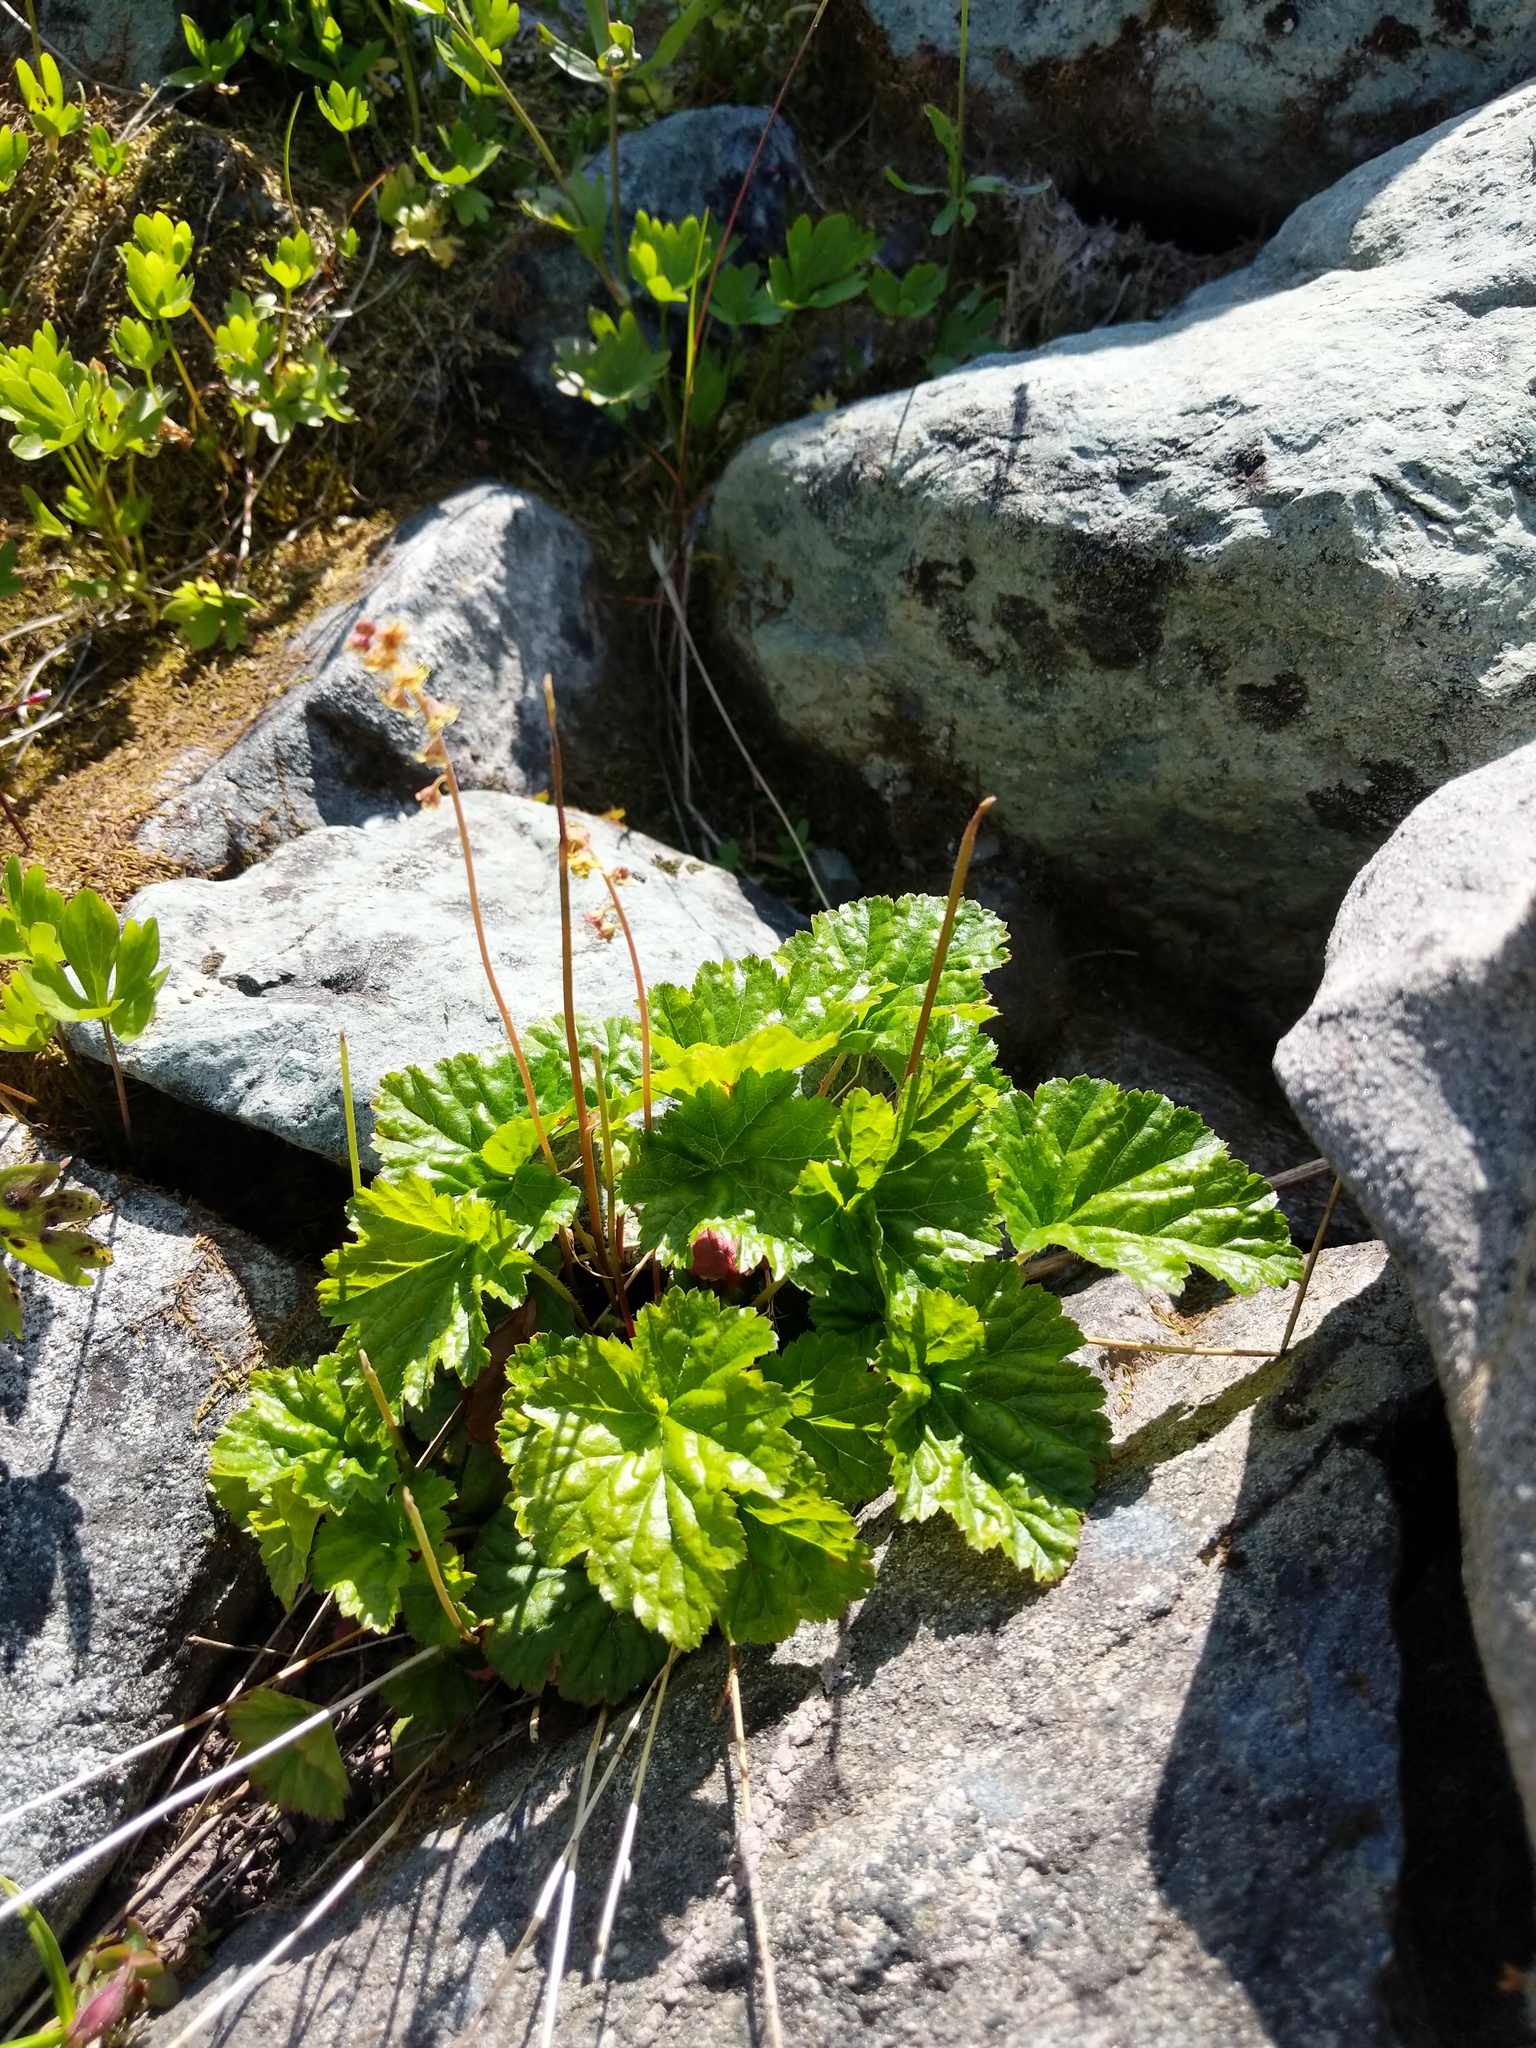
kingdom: Plantae
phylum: Tracheophyta
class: Magnoliopsida
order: Saxifragales
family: Saxifragaceae
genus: Pectiantia
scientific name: Pectiantia pentandra
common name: Alpine bishop's-cap
